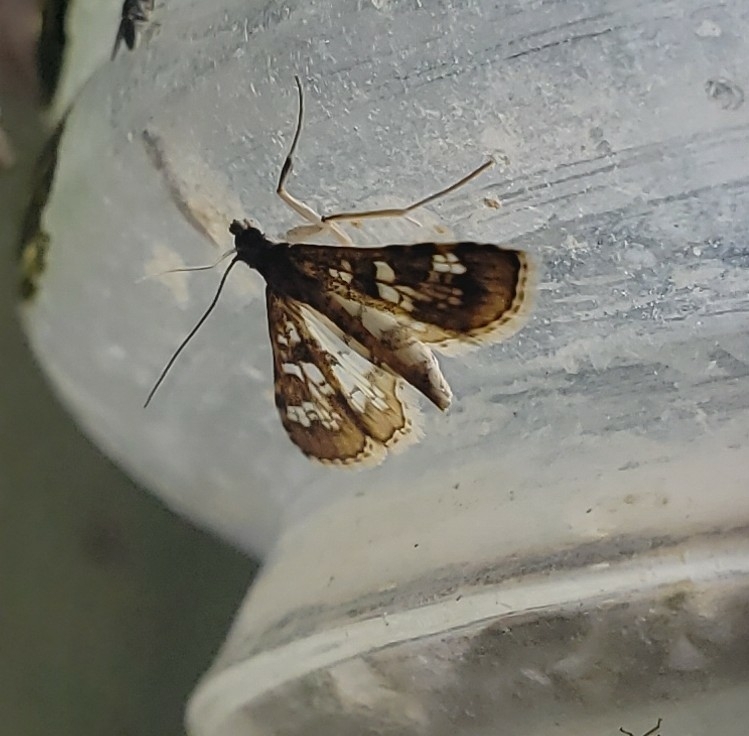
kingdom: Animalia
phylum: Arthropoda
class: Insecta
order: Lepidoptera
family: Crambidae
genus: Samea
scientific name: Samea multiplicalis
